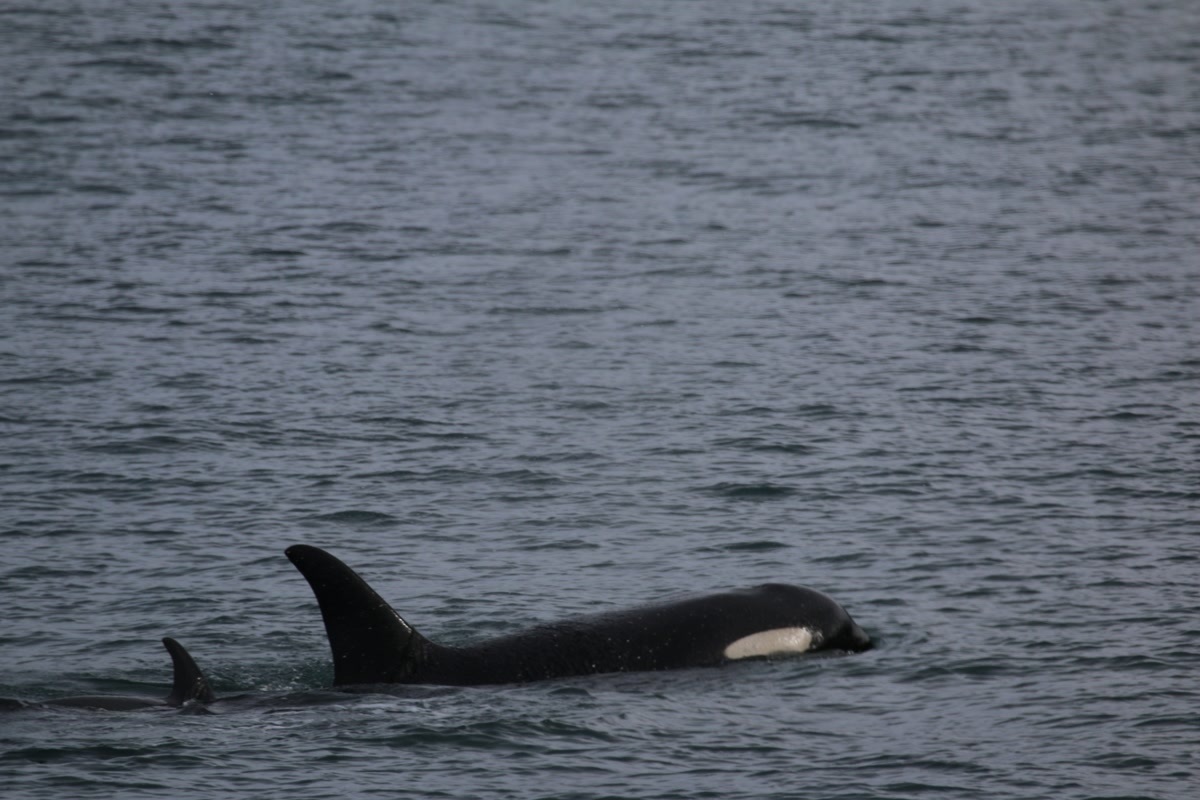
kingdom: Animalia
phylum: Chordata
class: Mammalia
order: Cetacea
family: Delphinidae
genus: Orcinus
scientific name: Orcinus orca
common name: Killer whale
